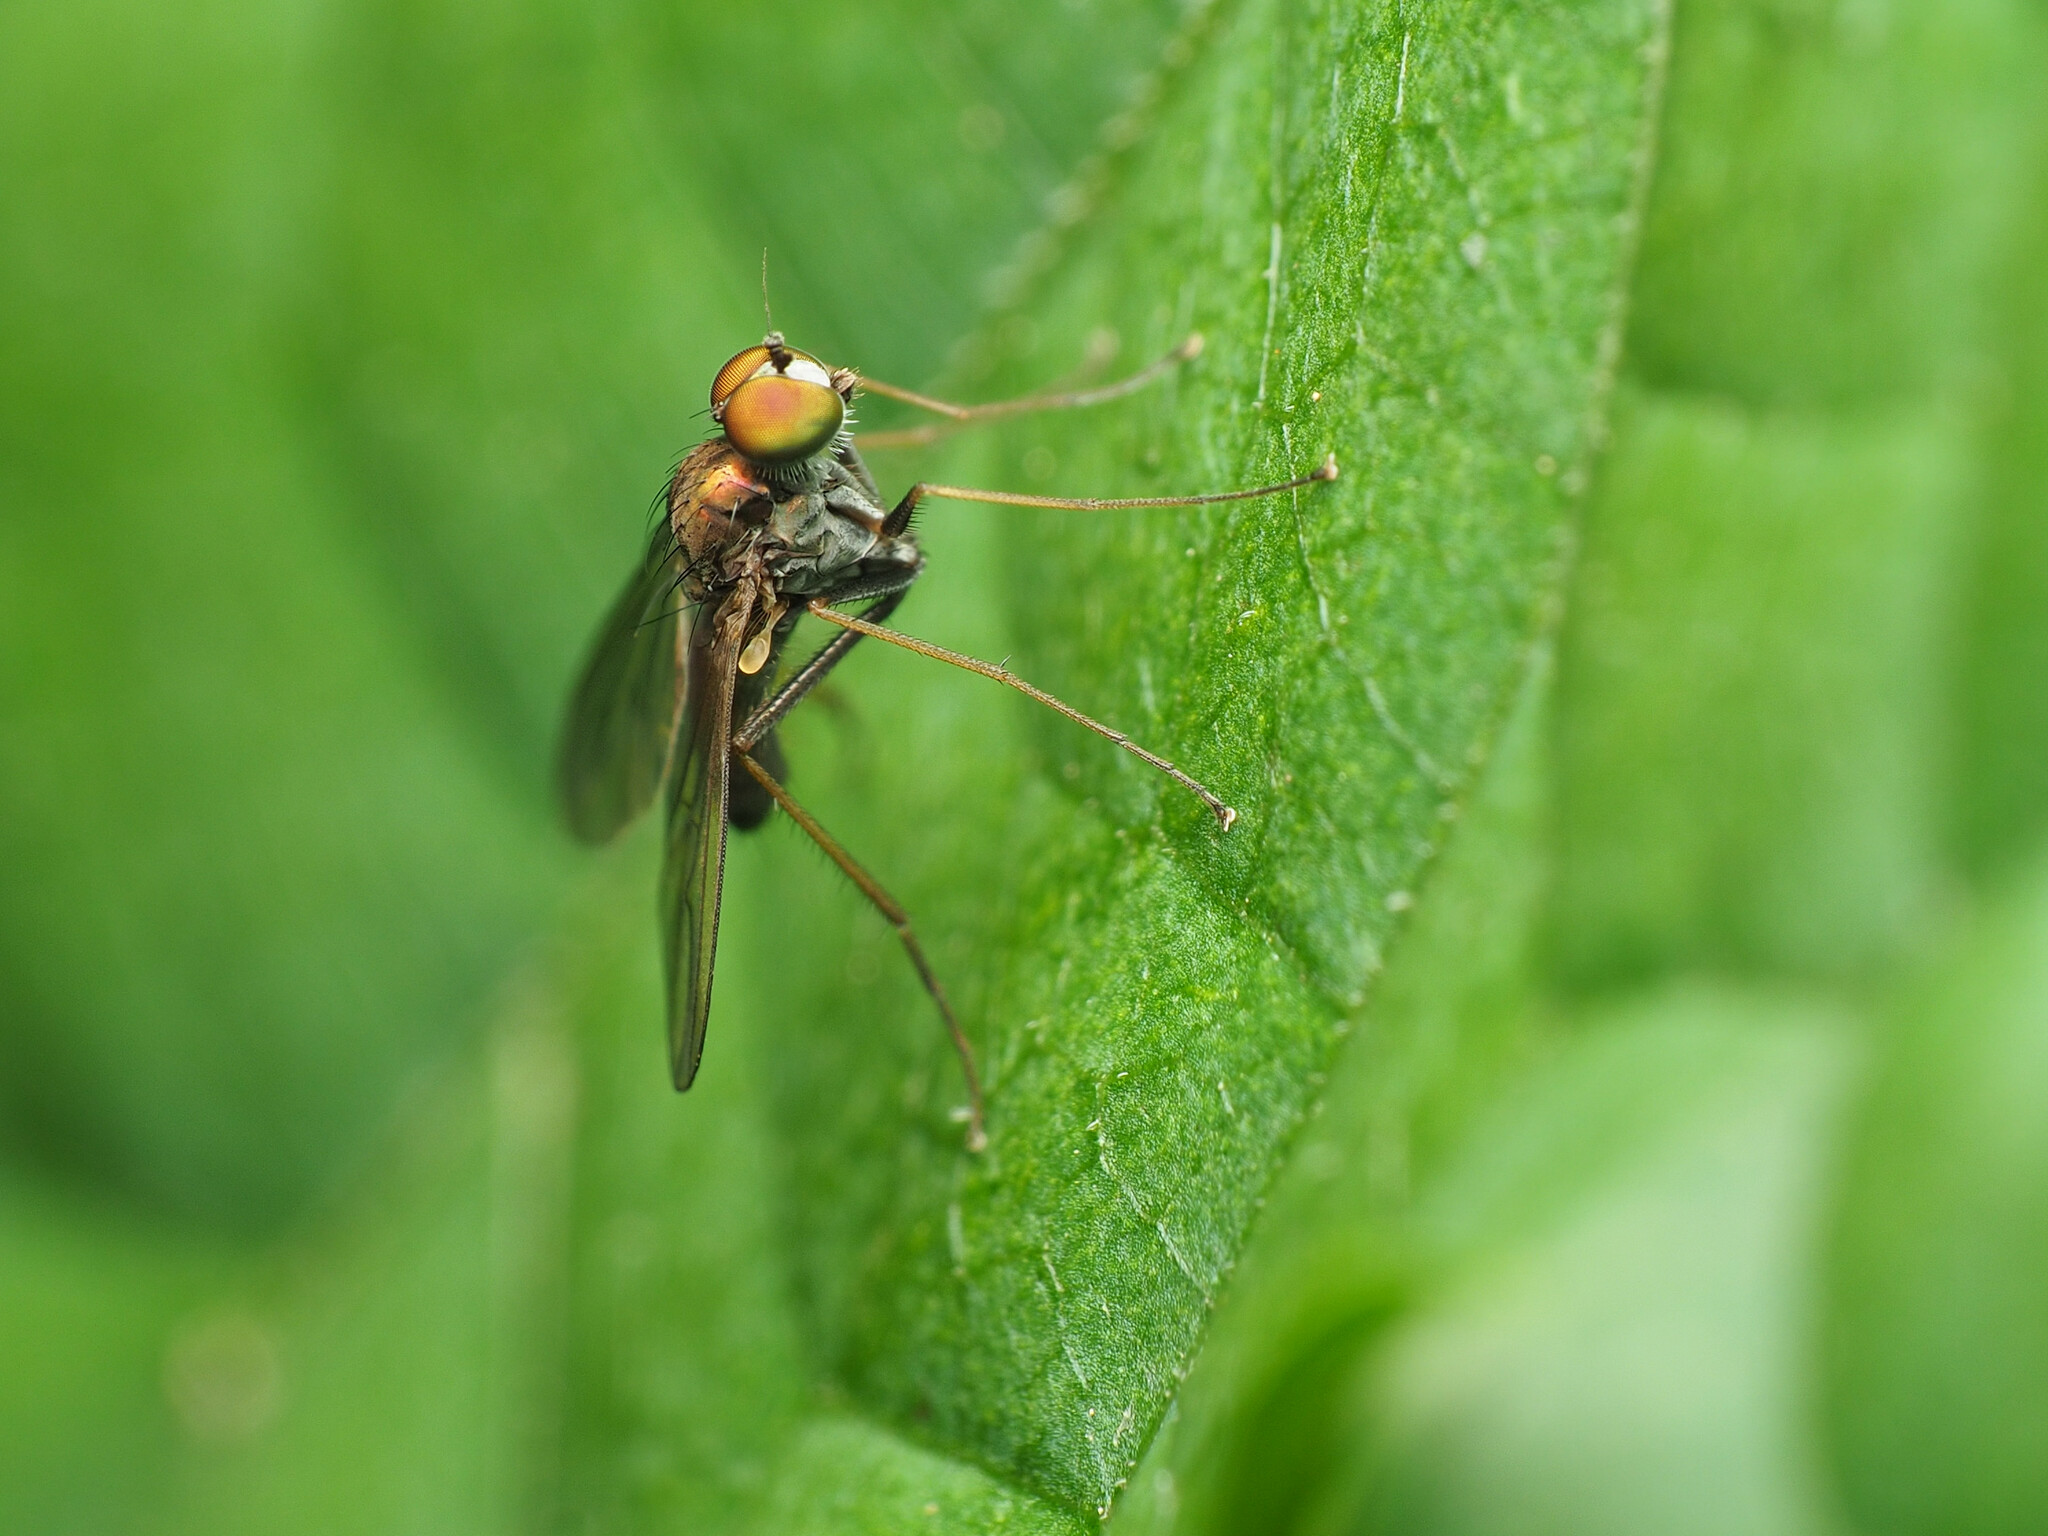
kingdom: Animalia
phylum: Arthropoda
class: Insecta
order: Diptera
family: Dolichopodidae
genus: Chrysotus
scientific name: Chrysotus spectabilis
